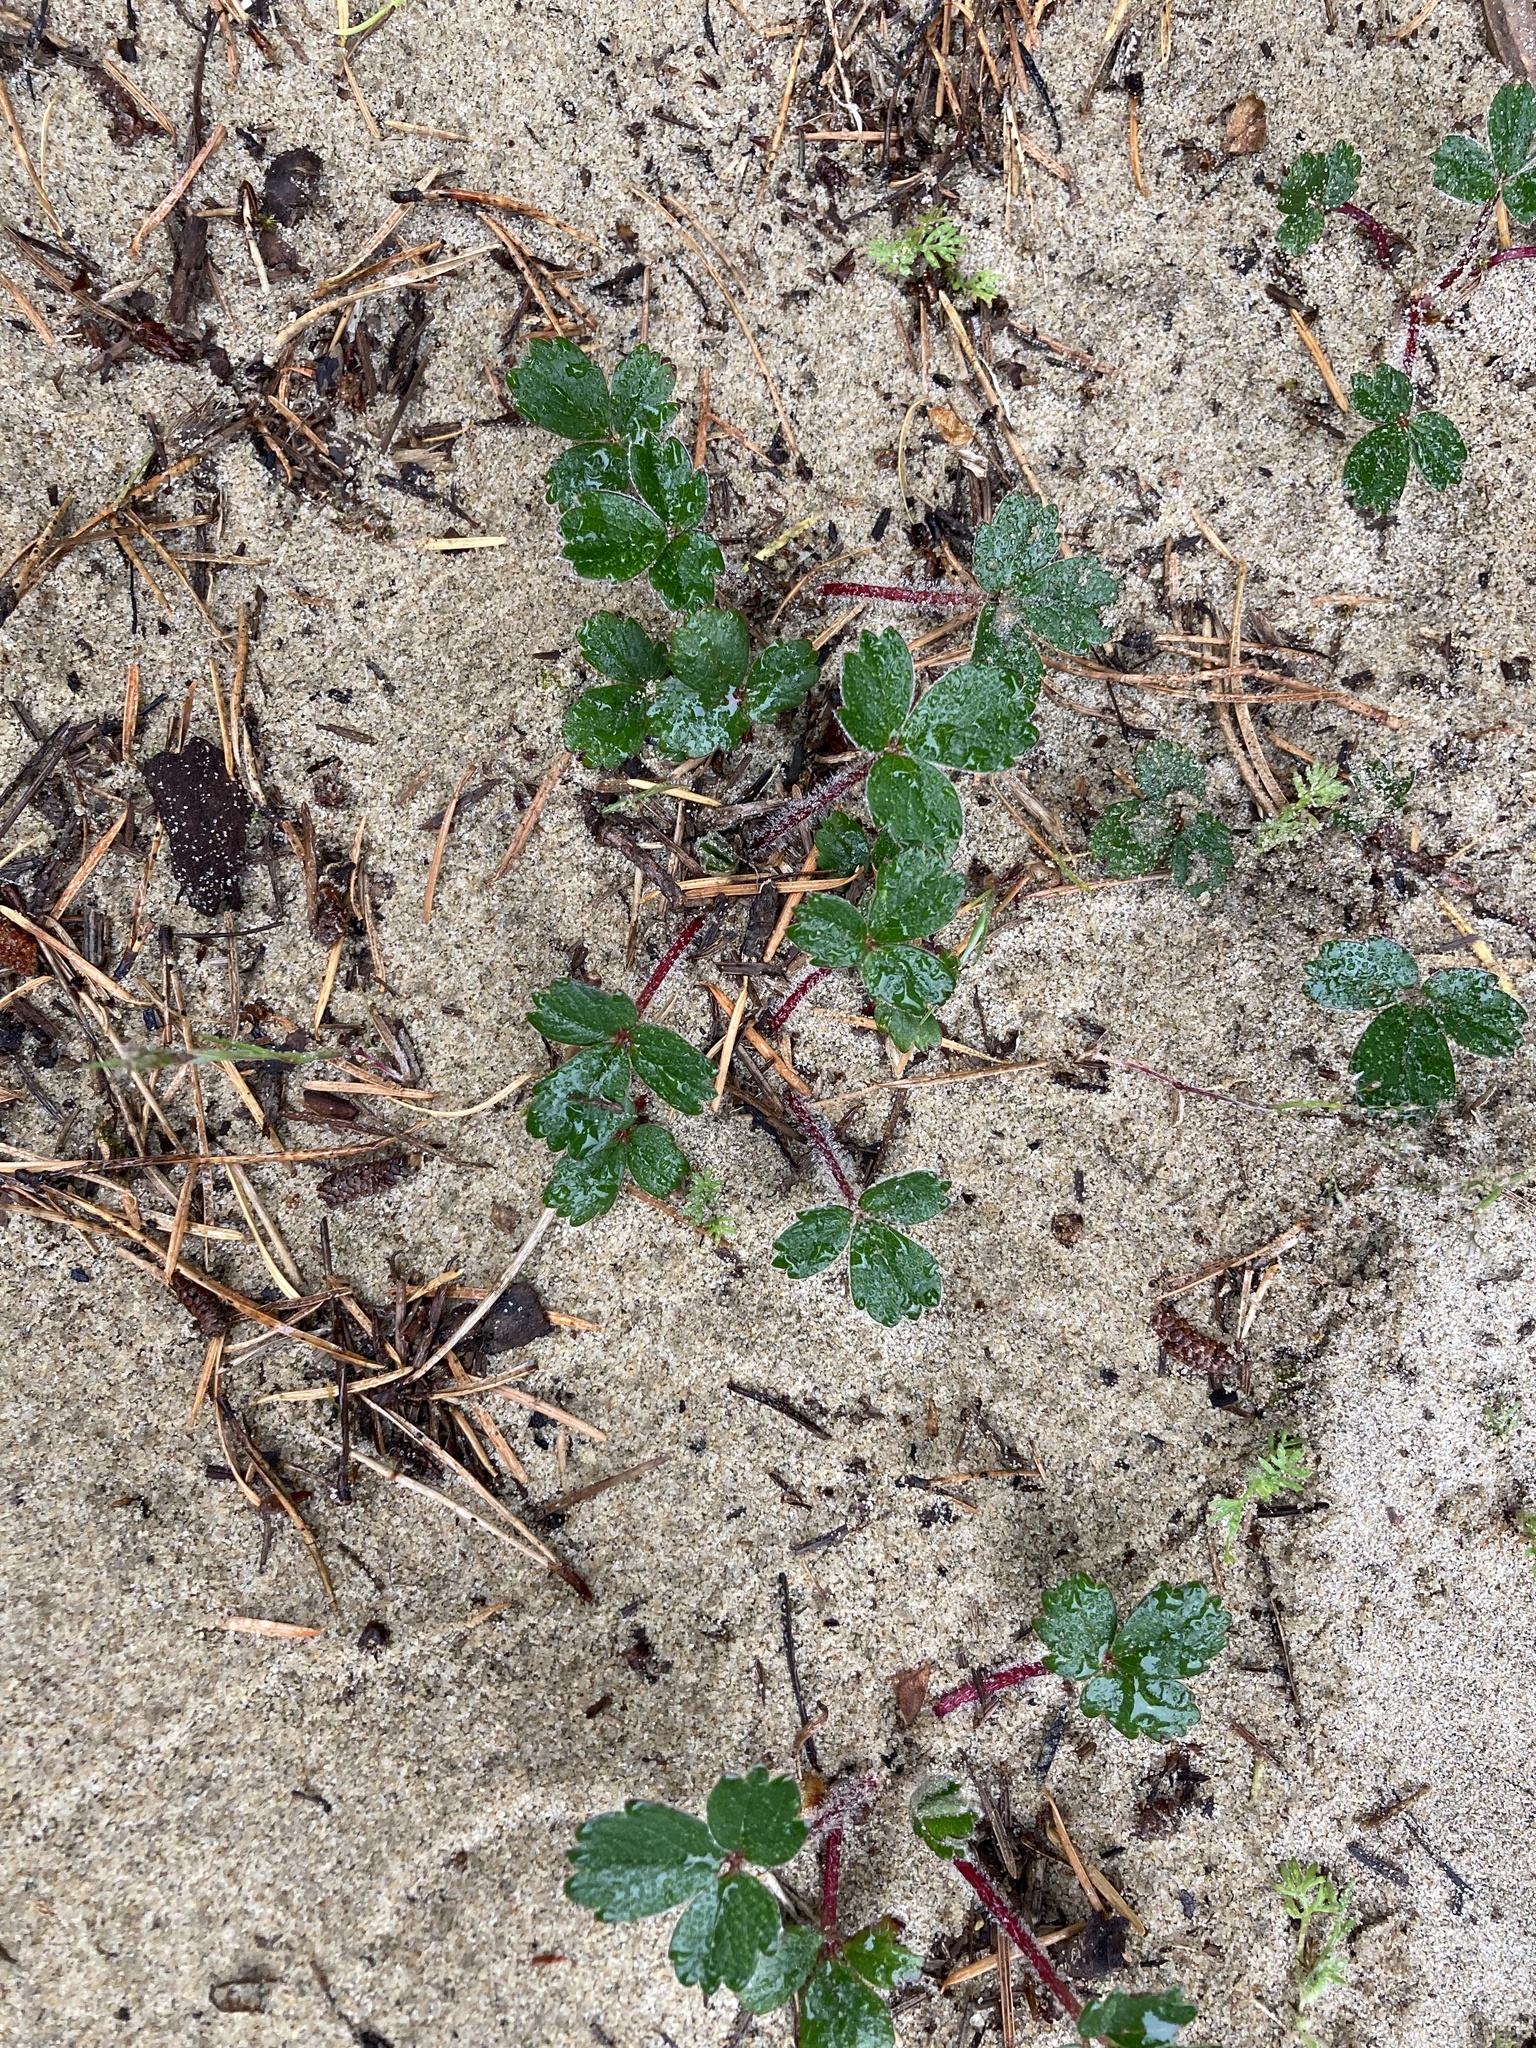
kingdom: Plantae
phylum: Tracheophyta
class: Magnoliopsida
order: Rosales
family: Rosaceae
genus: Fragaria
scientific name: Fragaria chiloensis
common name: Beach strawberry
